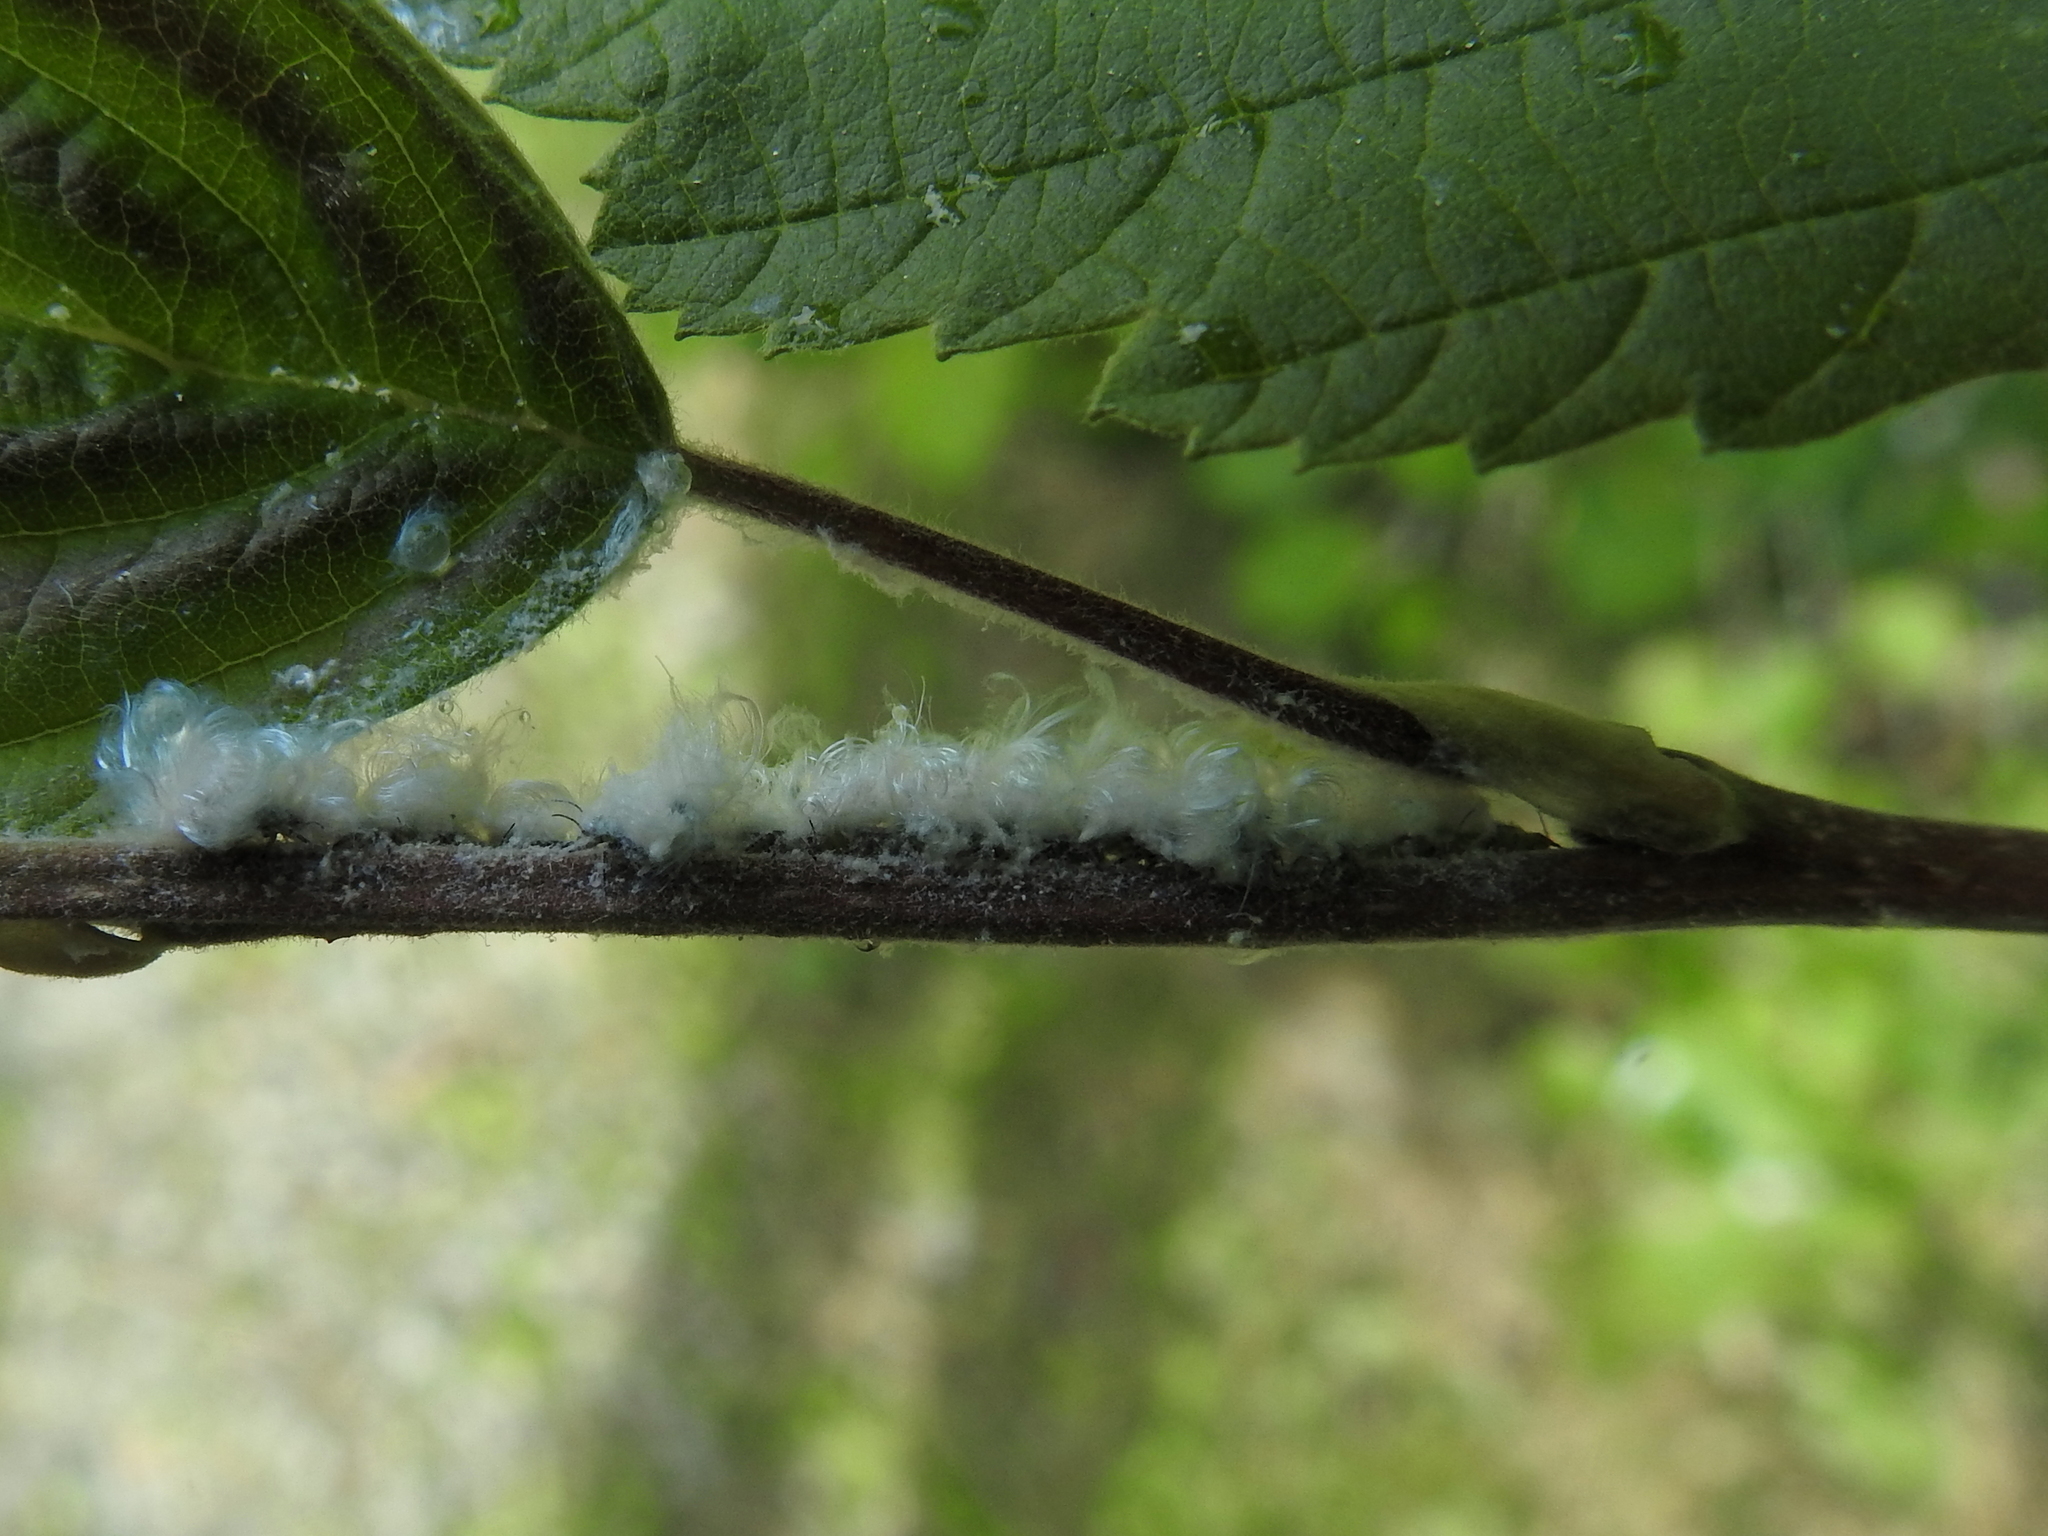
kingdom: Animalia
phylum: Arthropoda
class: Insecta
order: Hemiptera
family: Psyllidae
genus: Psylla
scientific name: Psylla alni
